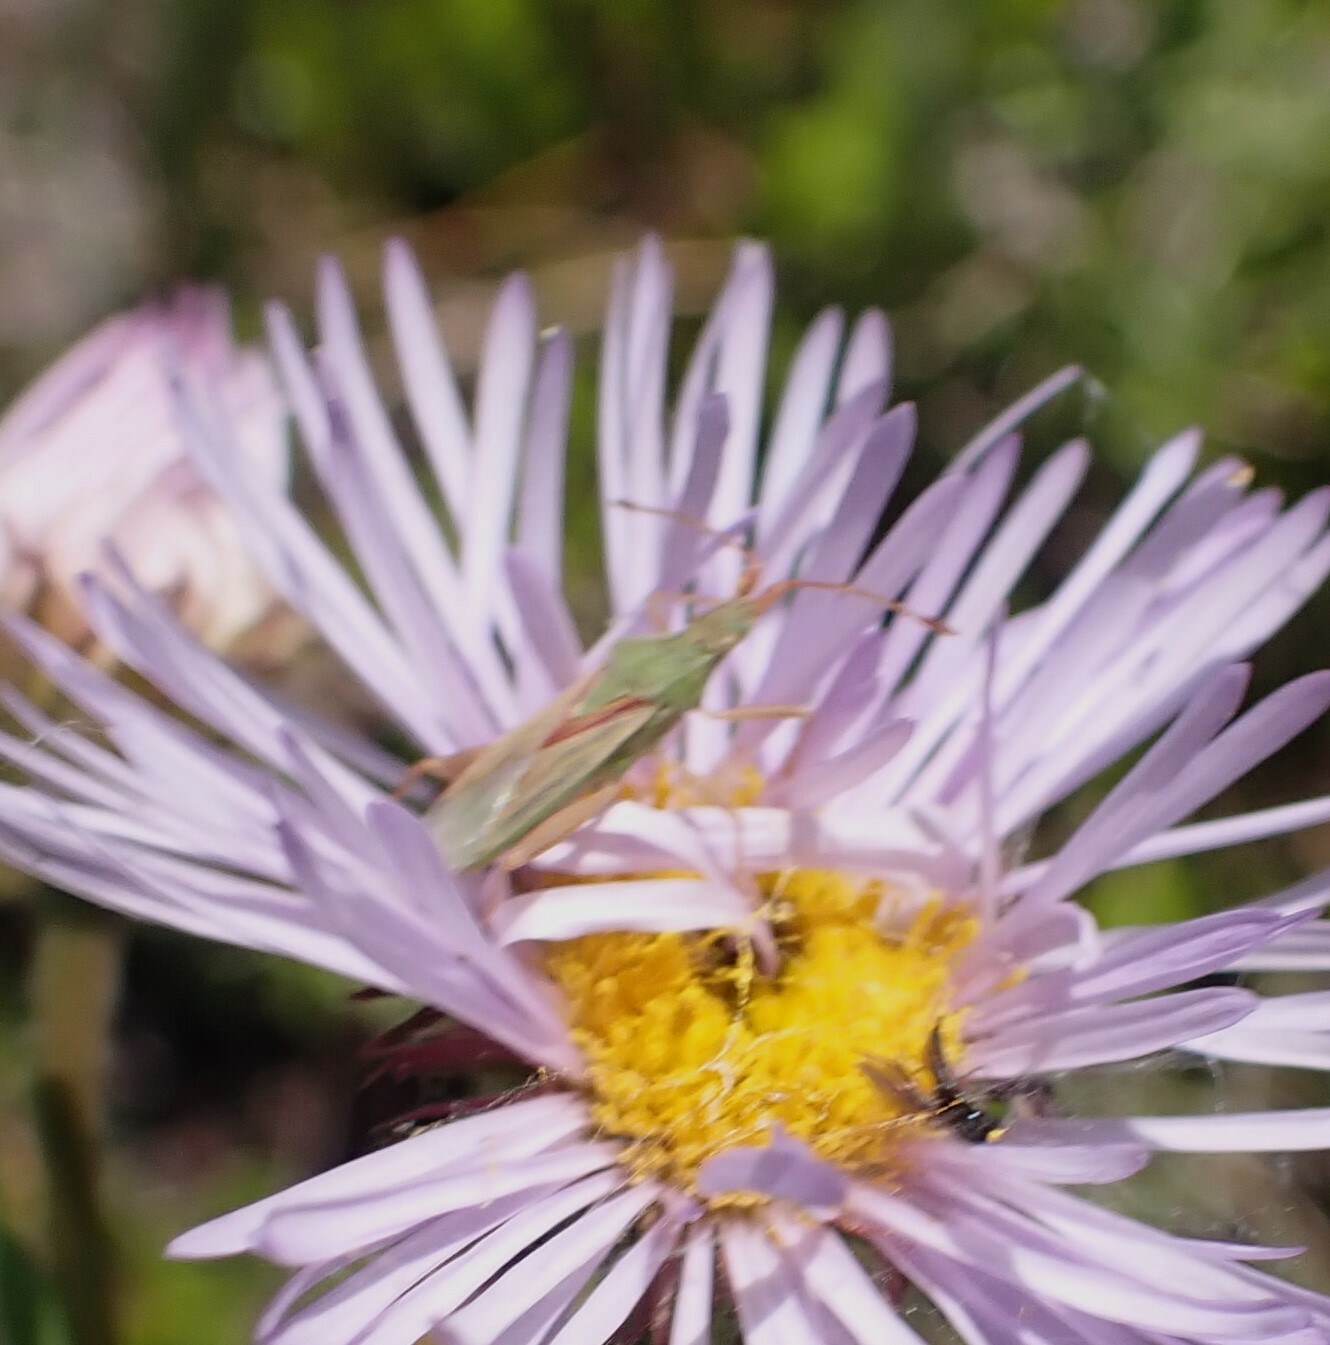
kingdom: Animalia
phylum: Arthropoda
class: Insecta
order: Hemiptera
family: Rhopalidae
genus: Harmostes
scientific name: Harmostes reflexulus
